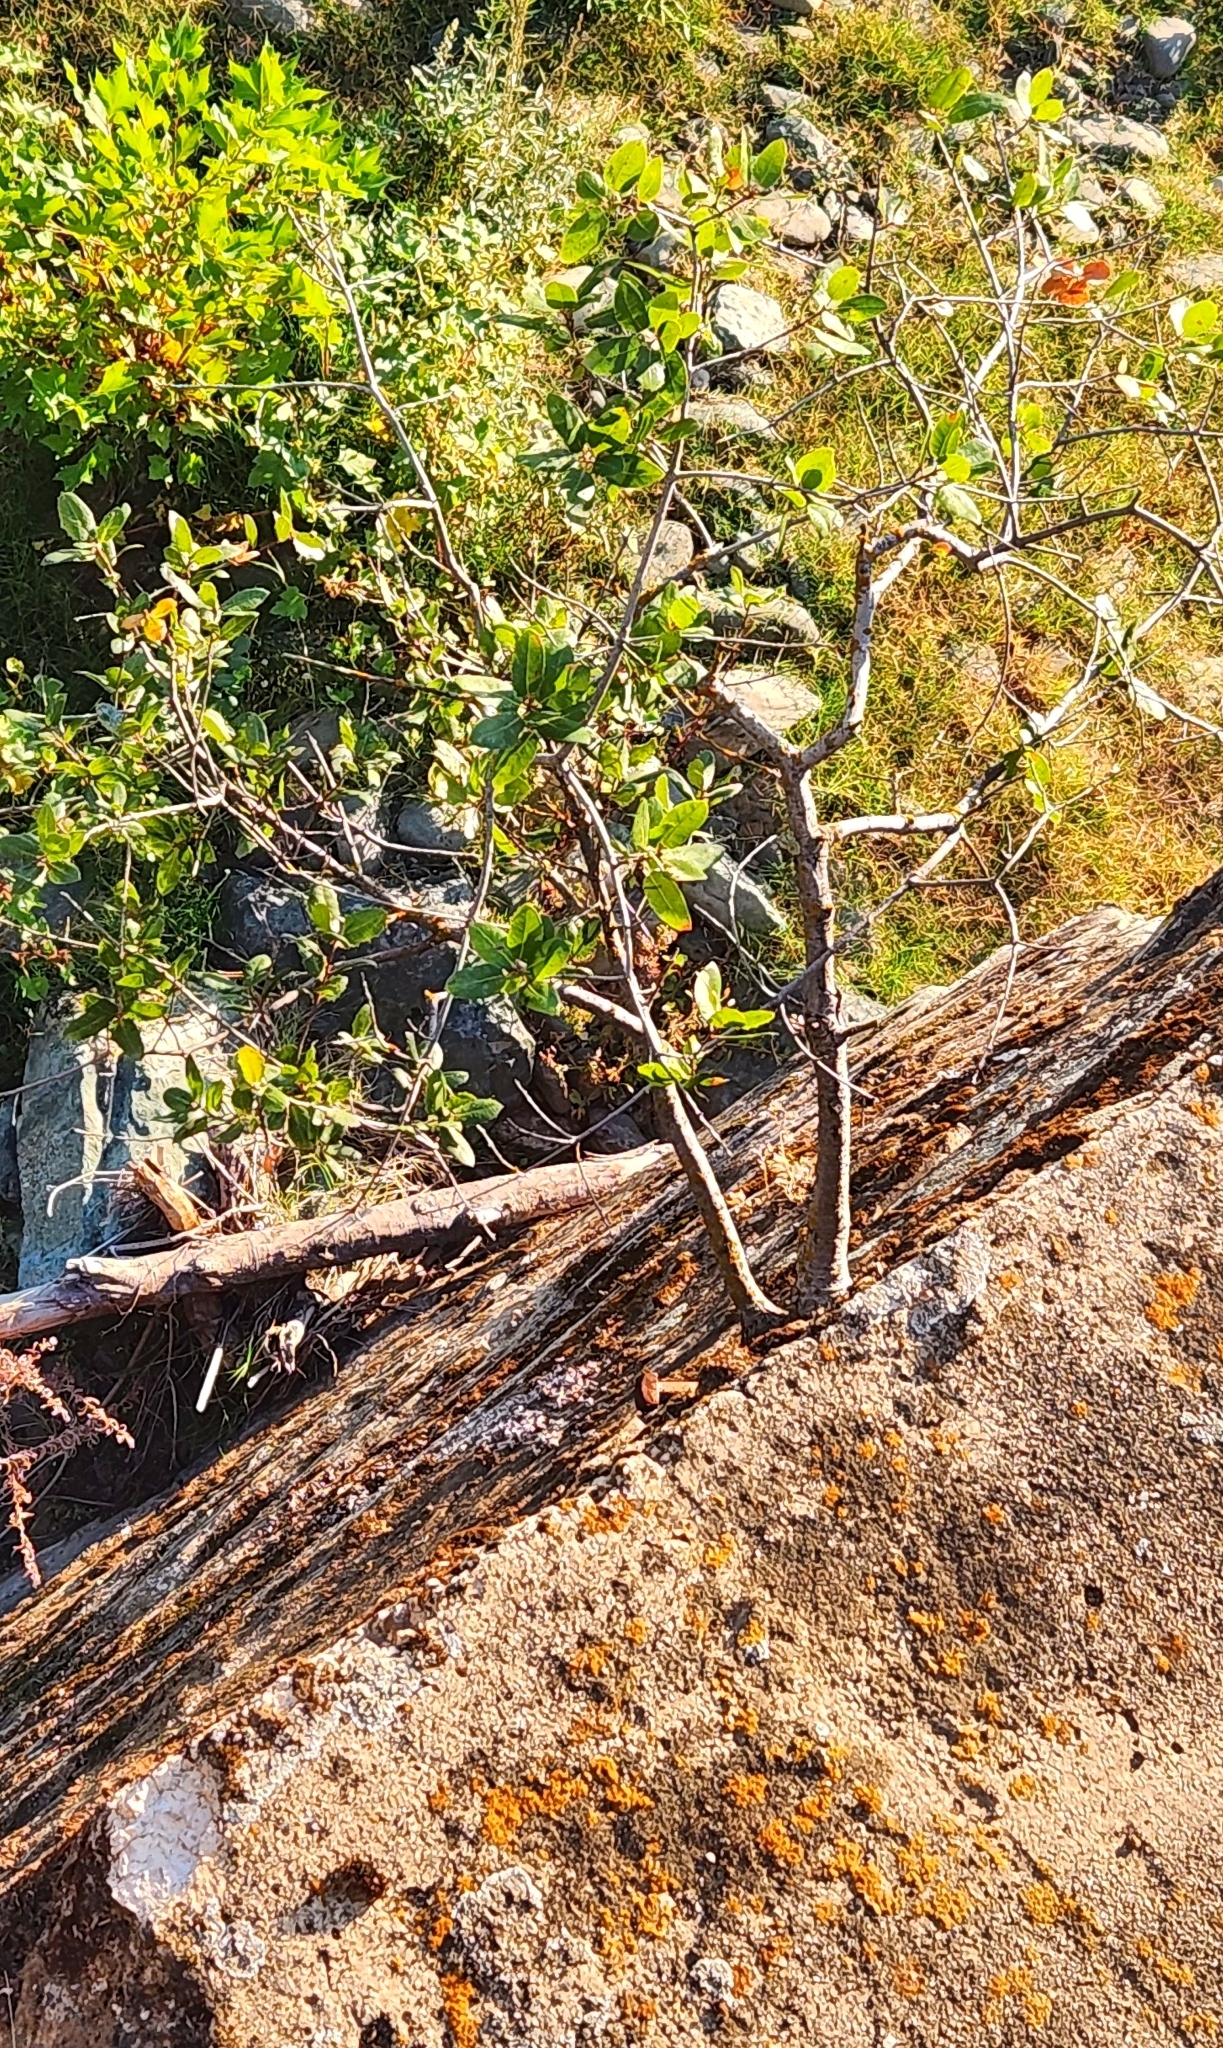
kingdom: Plantae
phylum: Tracheophyta
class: Magnoliopsida
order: Fagales
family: Fagaceae
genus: Quercus
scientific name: Quercus wislizeni
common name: Interior live oak
